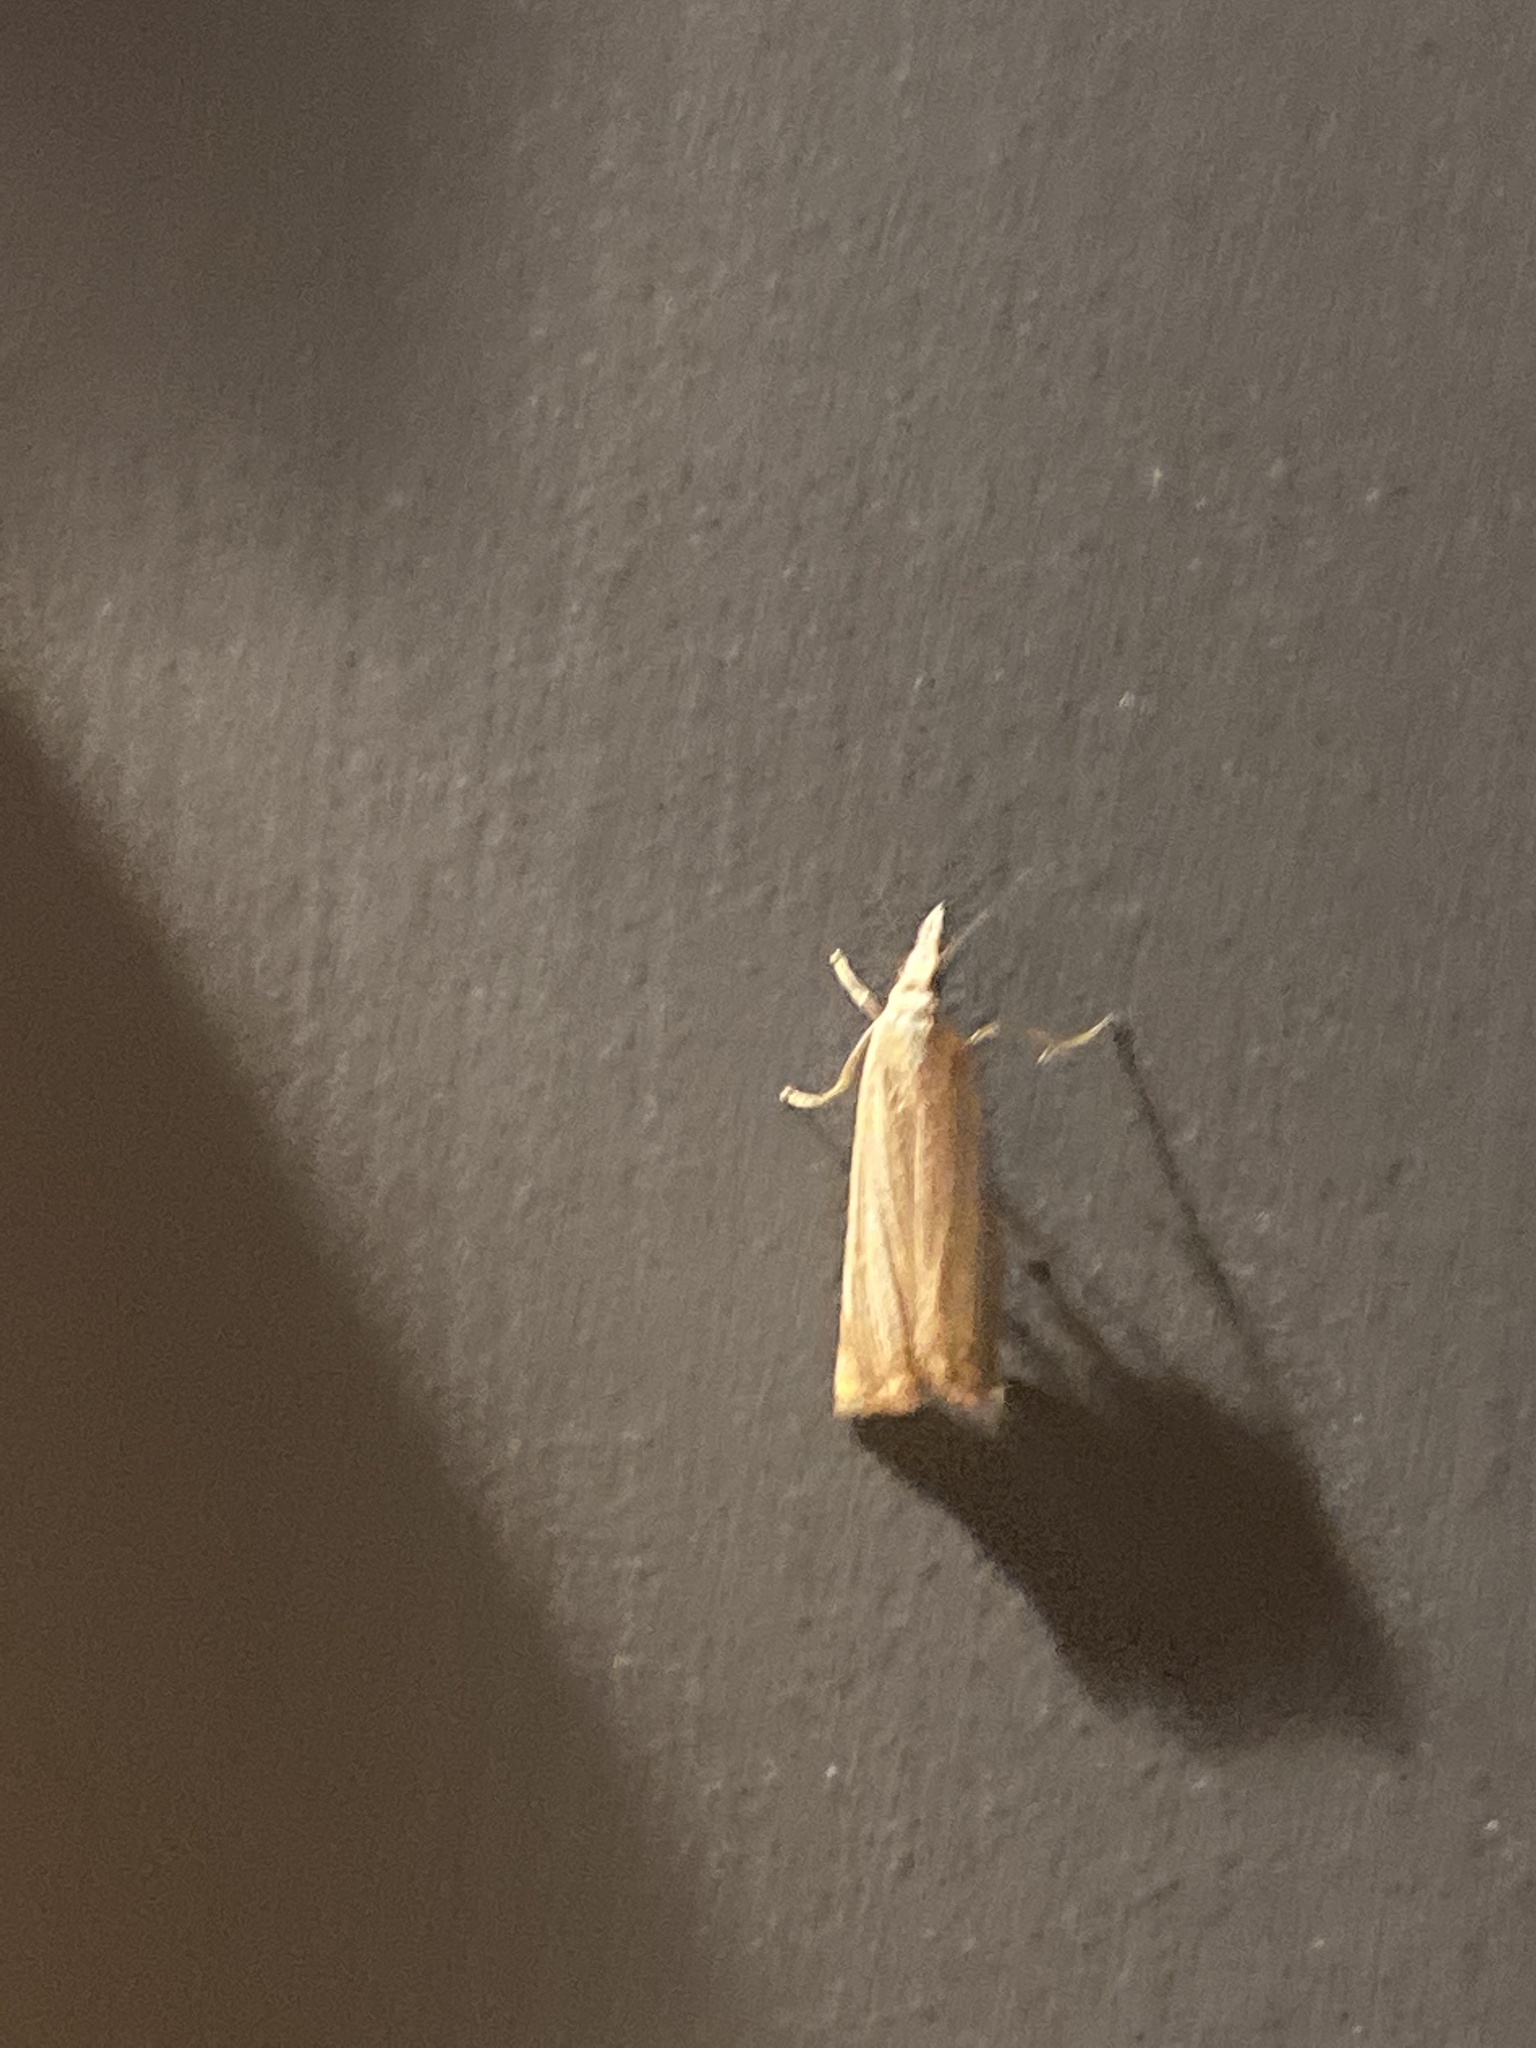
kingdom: Animalia
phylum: Arthropoda
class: Insecta
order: Lepidoptera
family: Crambidae
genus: Chrysoteuchia
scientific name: Chrysoteuchia culmella
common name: Garden grass-veneer
